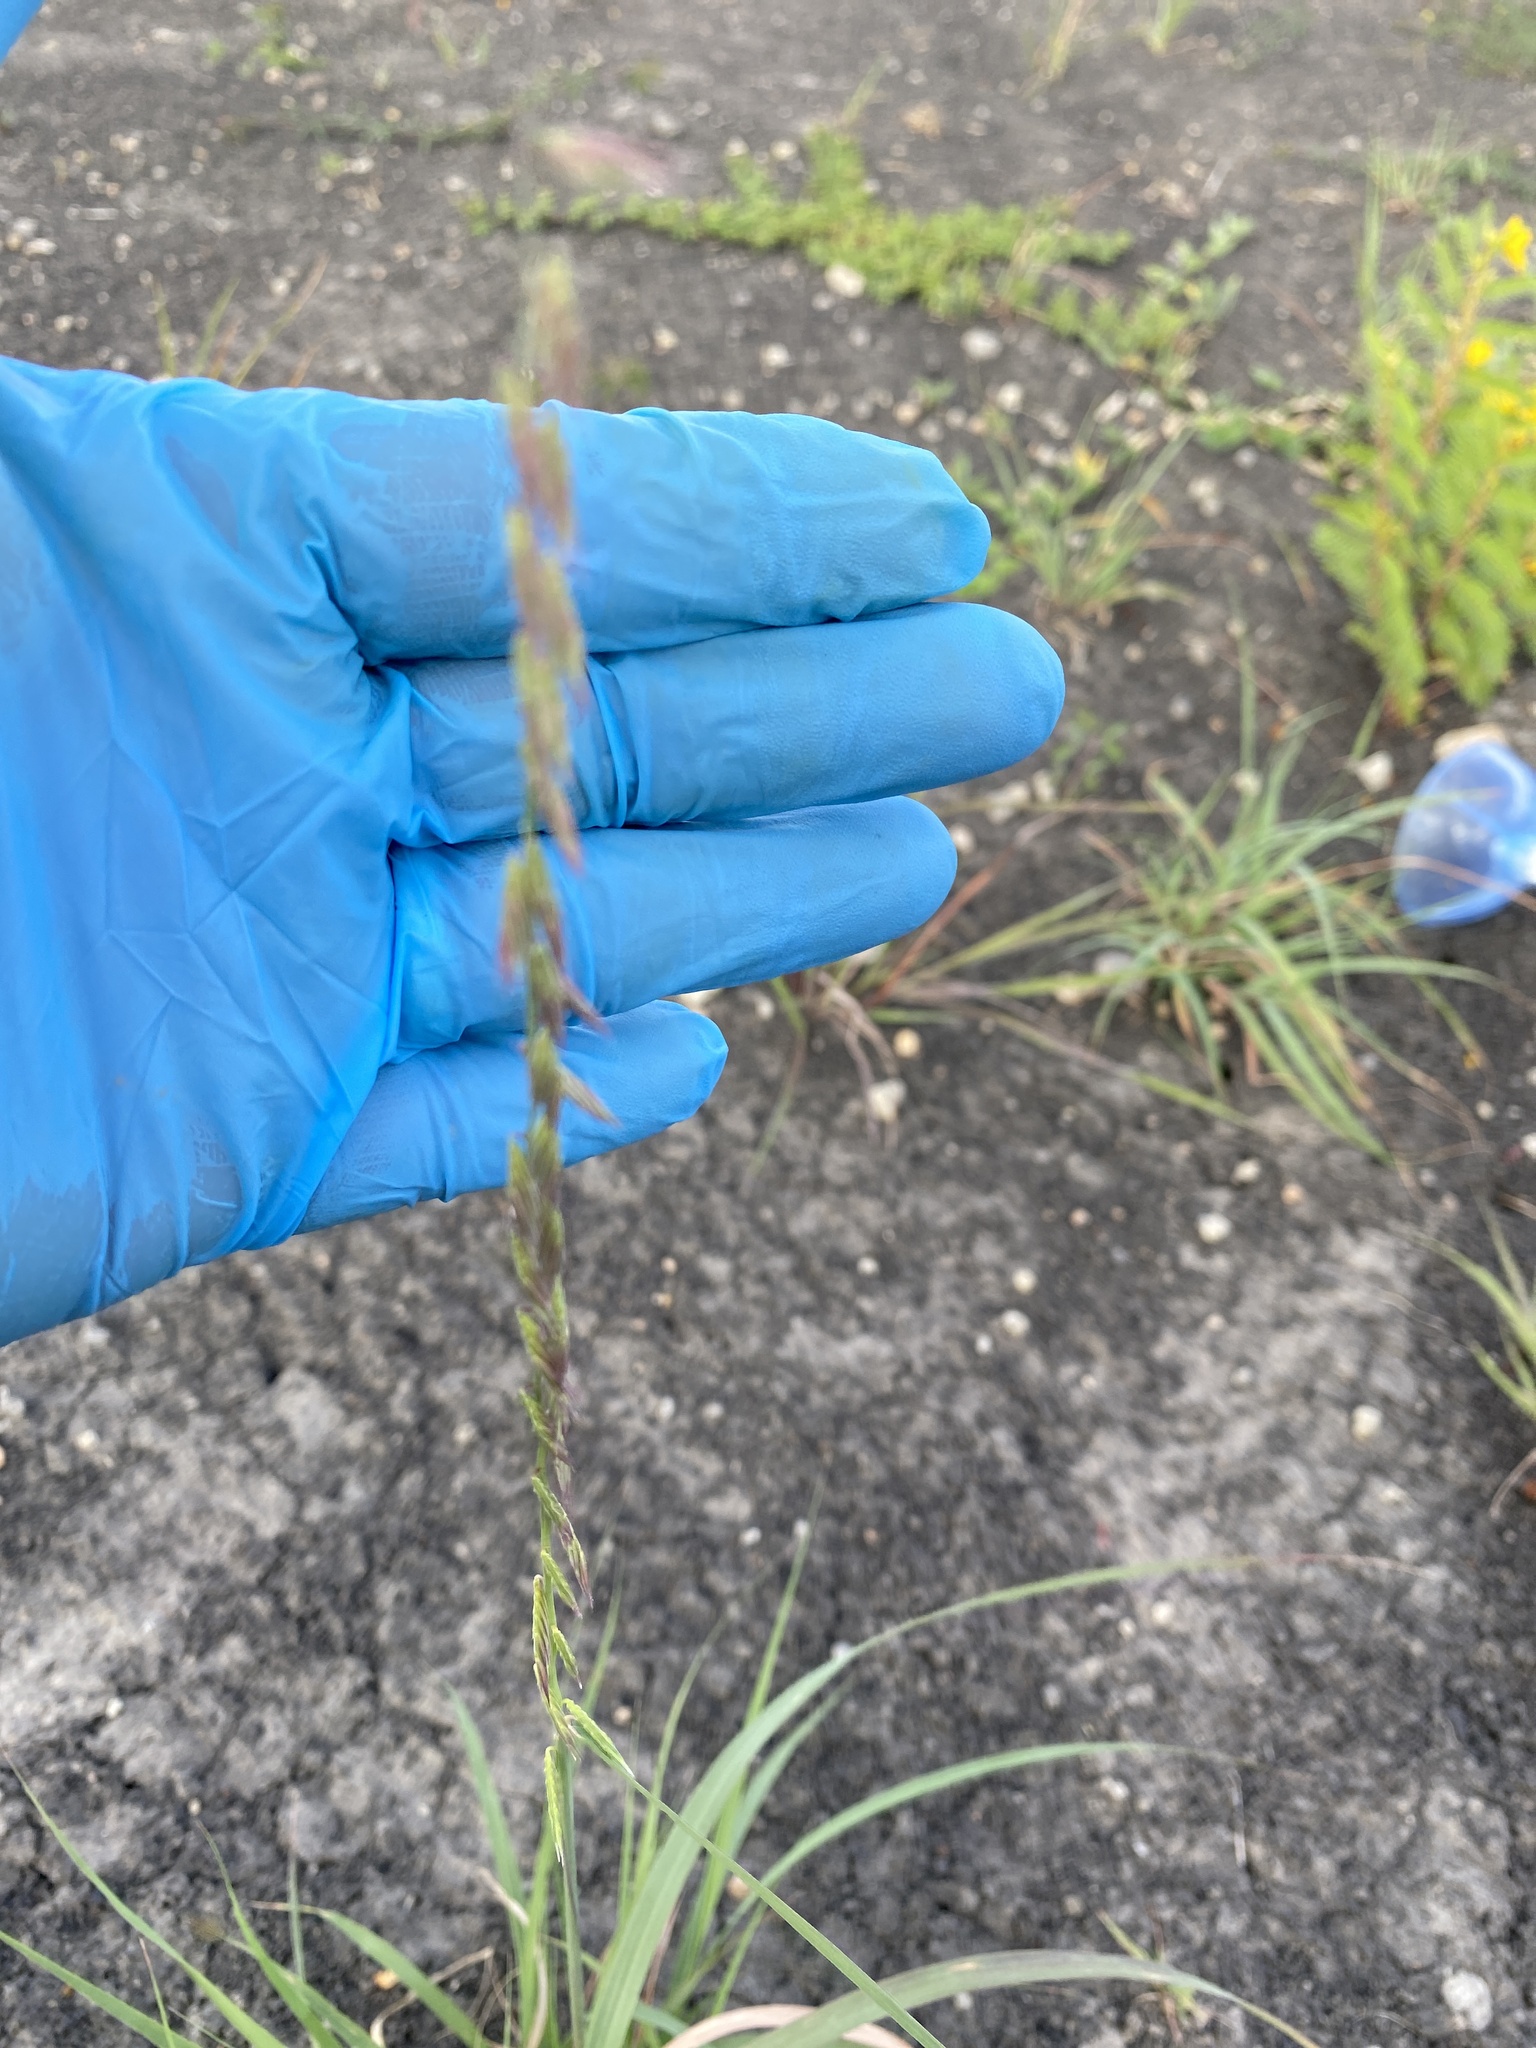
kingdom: Plantae
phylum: Tracheophyta
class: Liliopsida
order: Poales
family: Poaceae
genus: Bouteloua
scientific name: Bouteloua curtipendula
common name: Side-oats grama
